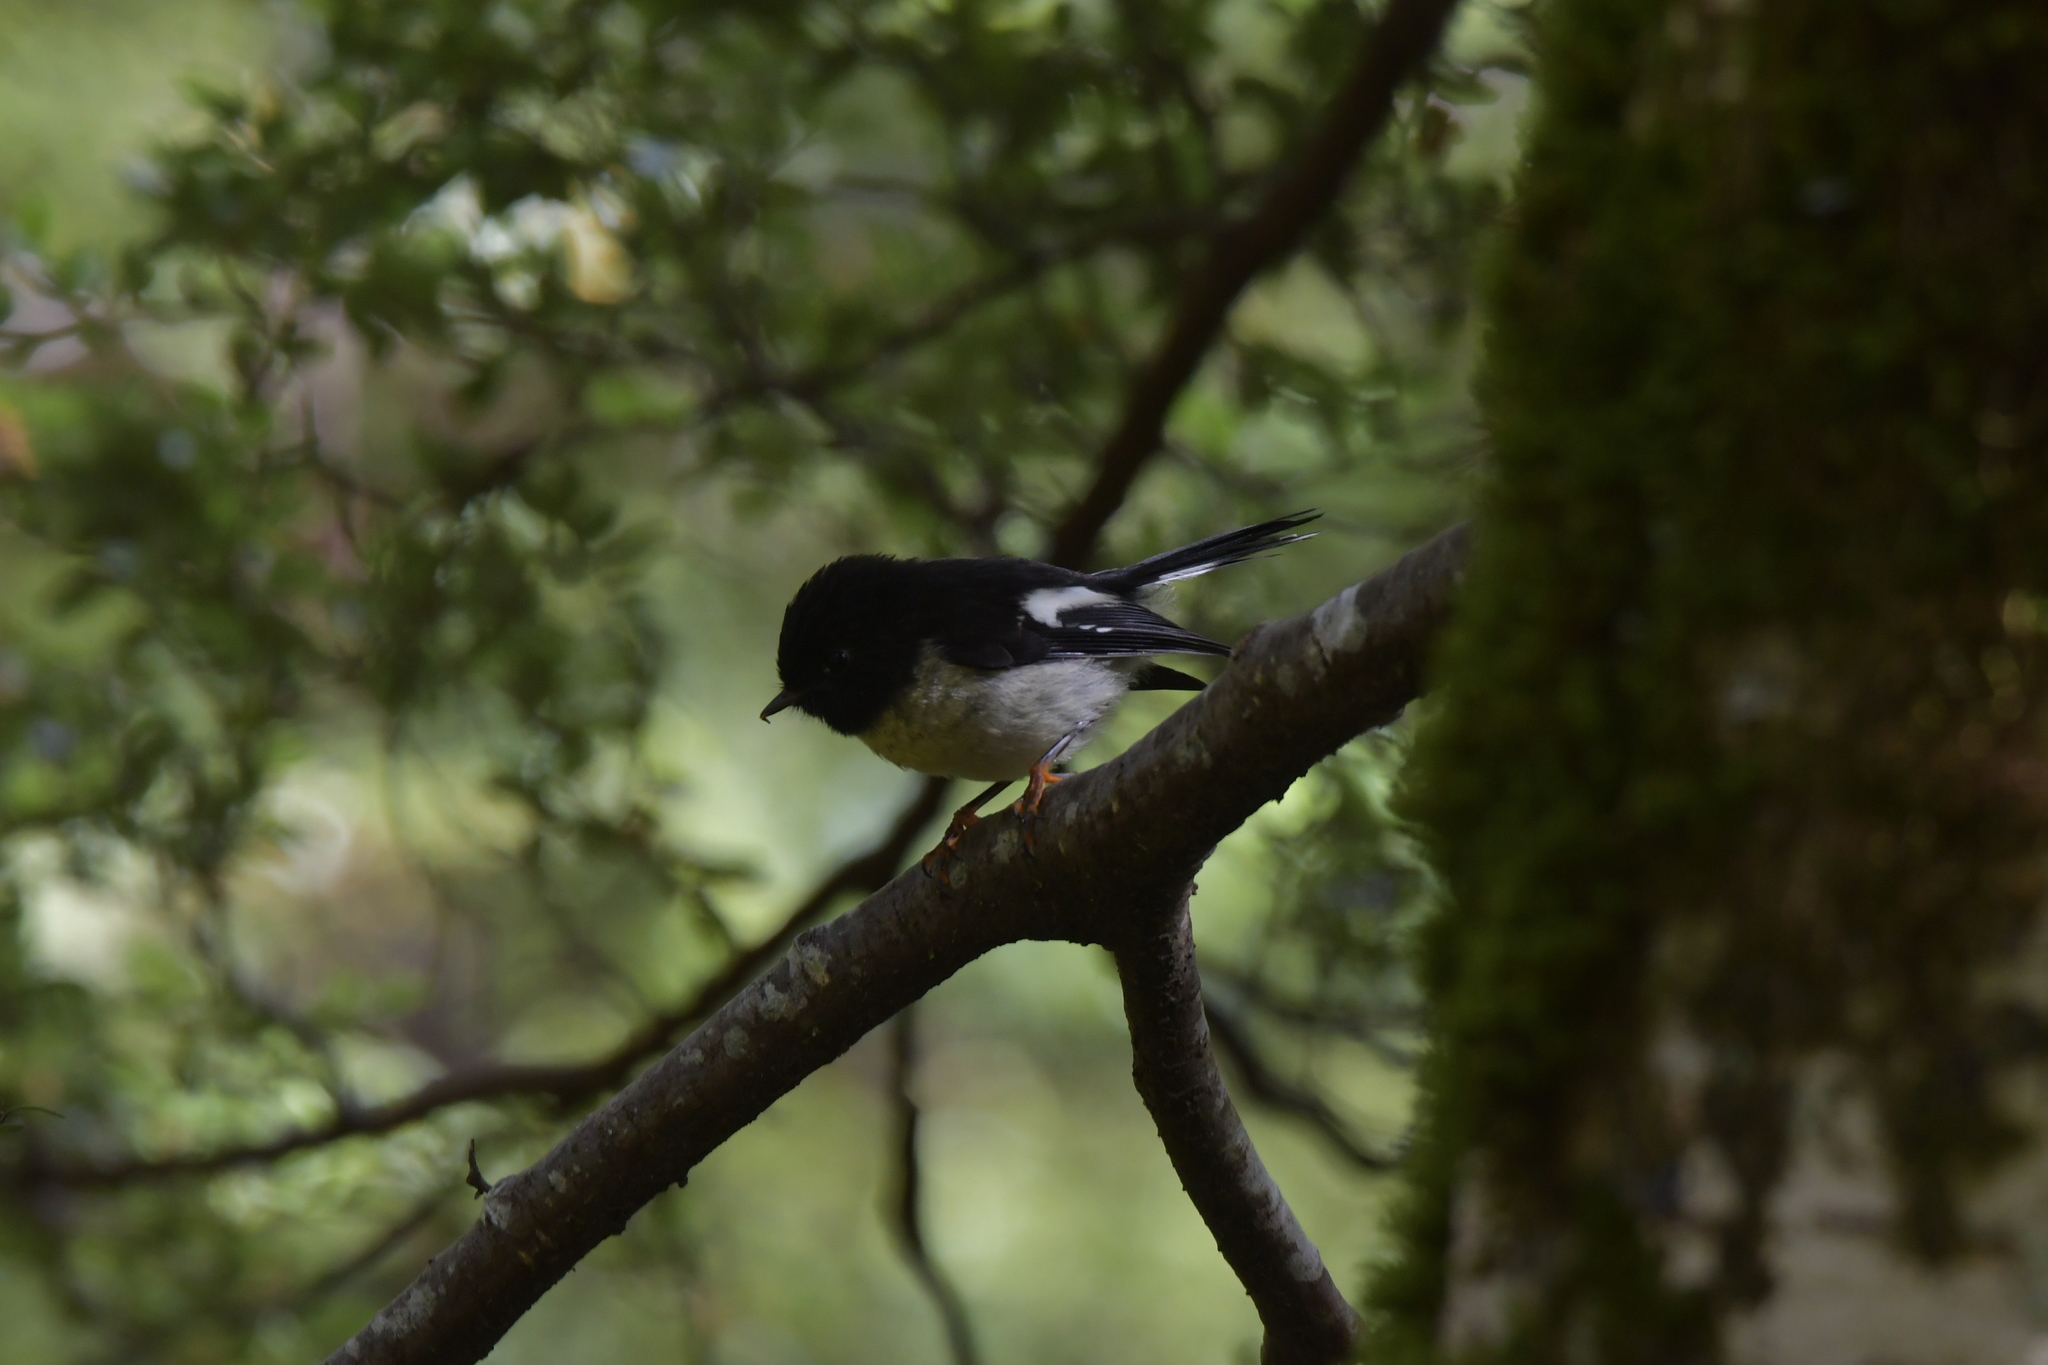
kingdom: Animalia
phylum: Chordata
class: Aves
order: Passeriformes
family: Petroicidae
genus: Petroica
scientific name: Petroica macrocephala
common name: Tomtit
